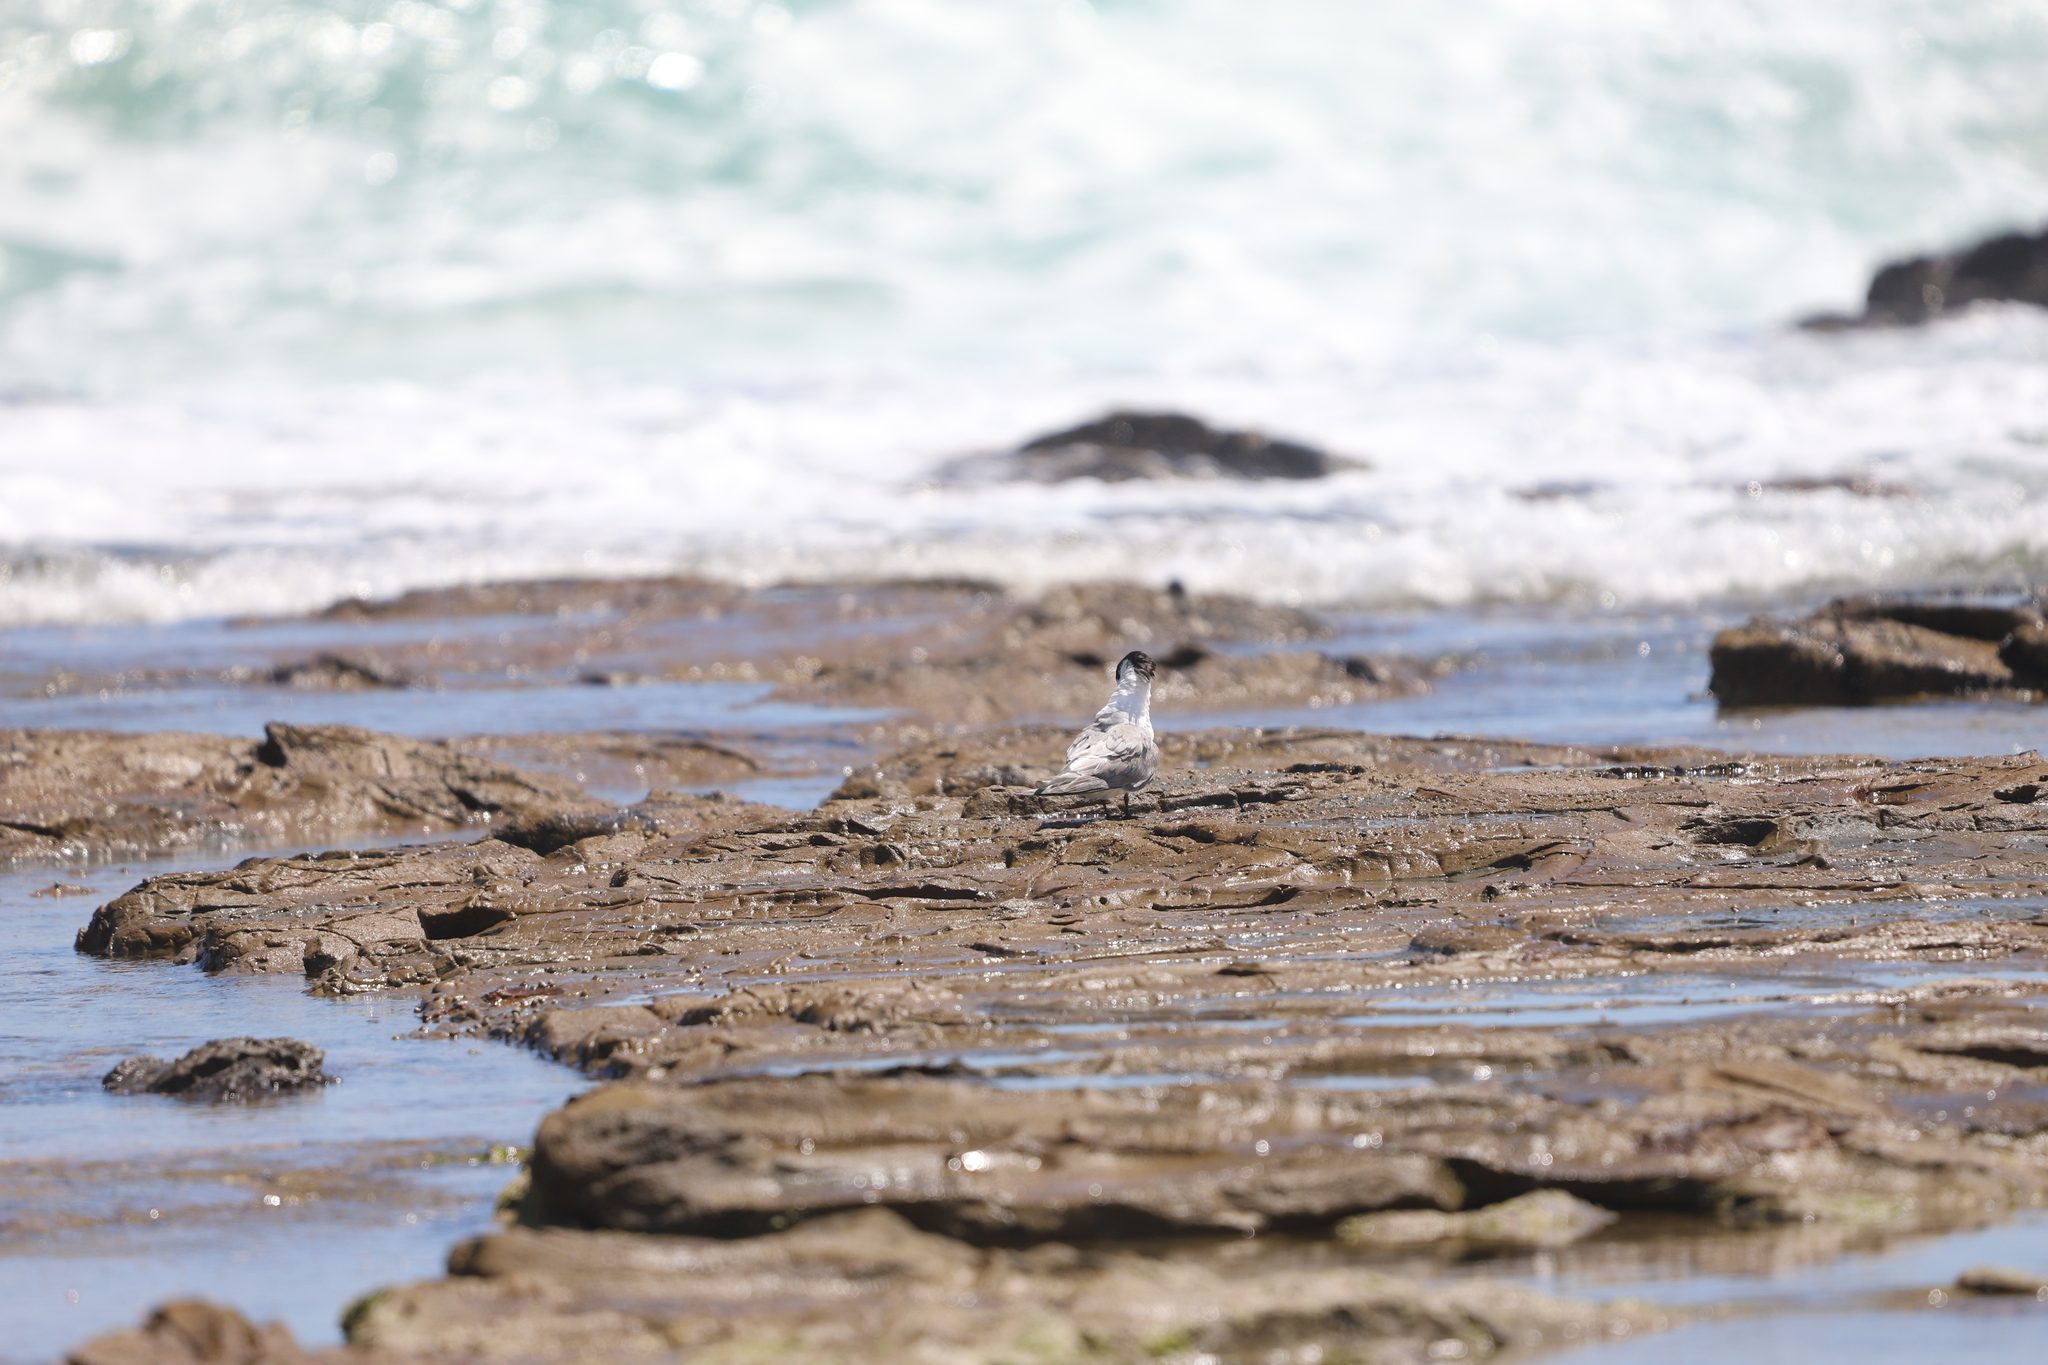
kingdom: Animalia
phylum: Chordata
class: Aves
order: Charadriiformes
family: Laridae
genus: Thalasseus
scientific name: Thalasseus bergii
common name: Greater crested tern
